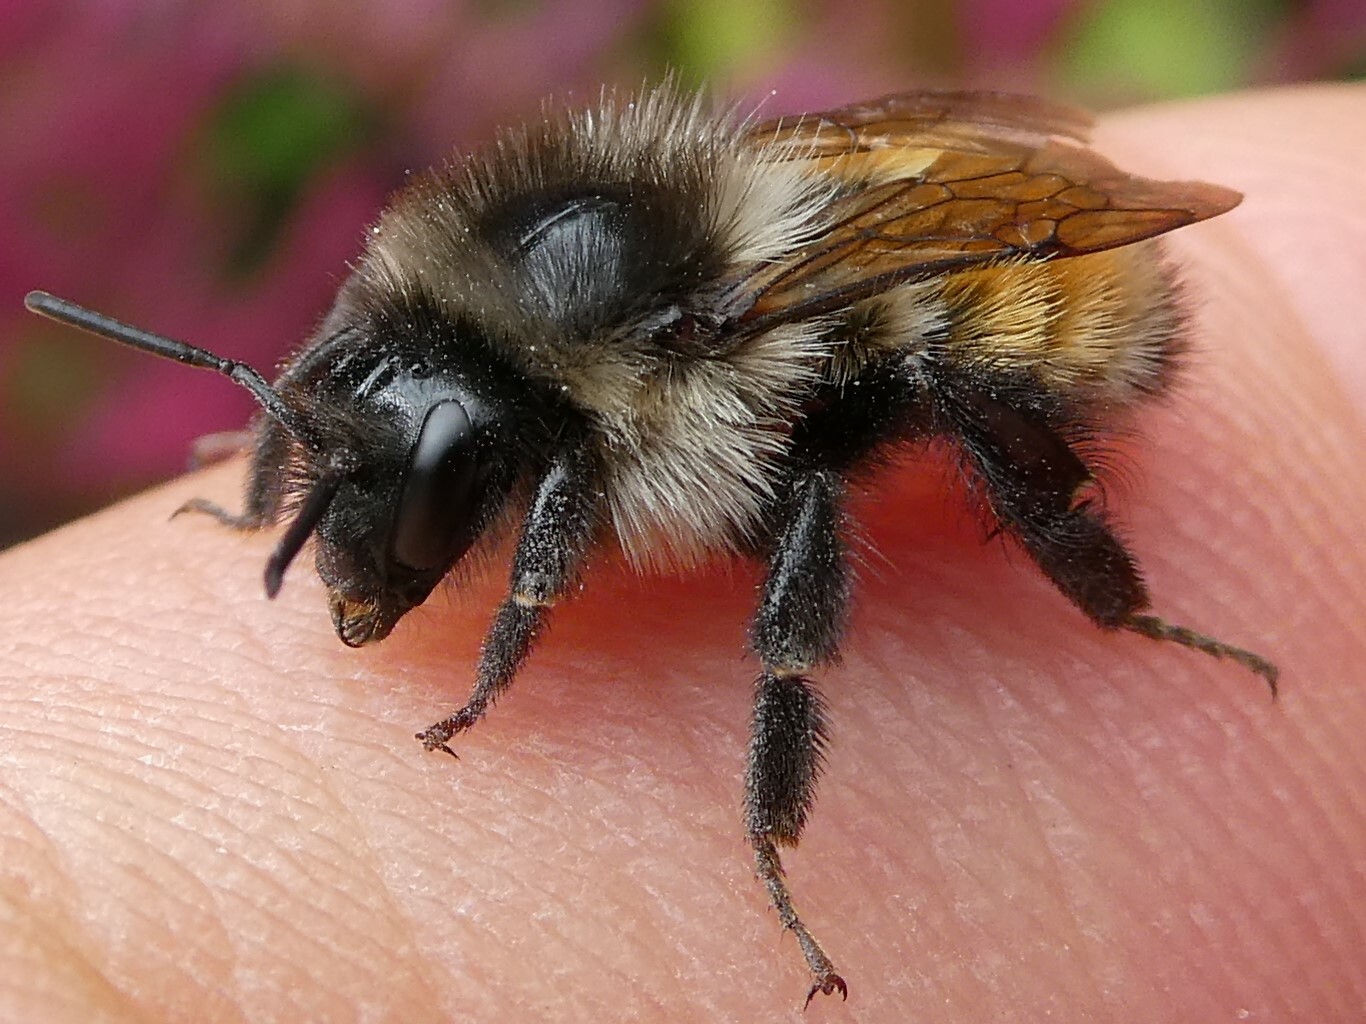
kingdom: Animalia
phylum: Arthropoda
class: Insecta
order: Hymenoptera
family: Apidae
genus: Bombus
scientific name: Bombus ternarius
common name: Tri-colored bumble bee
